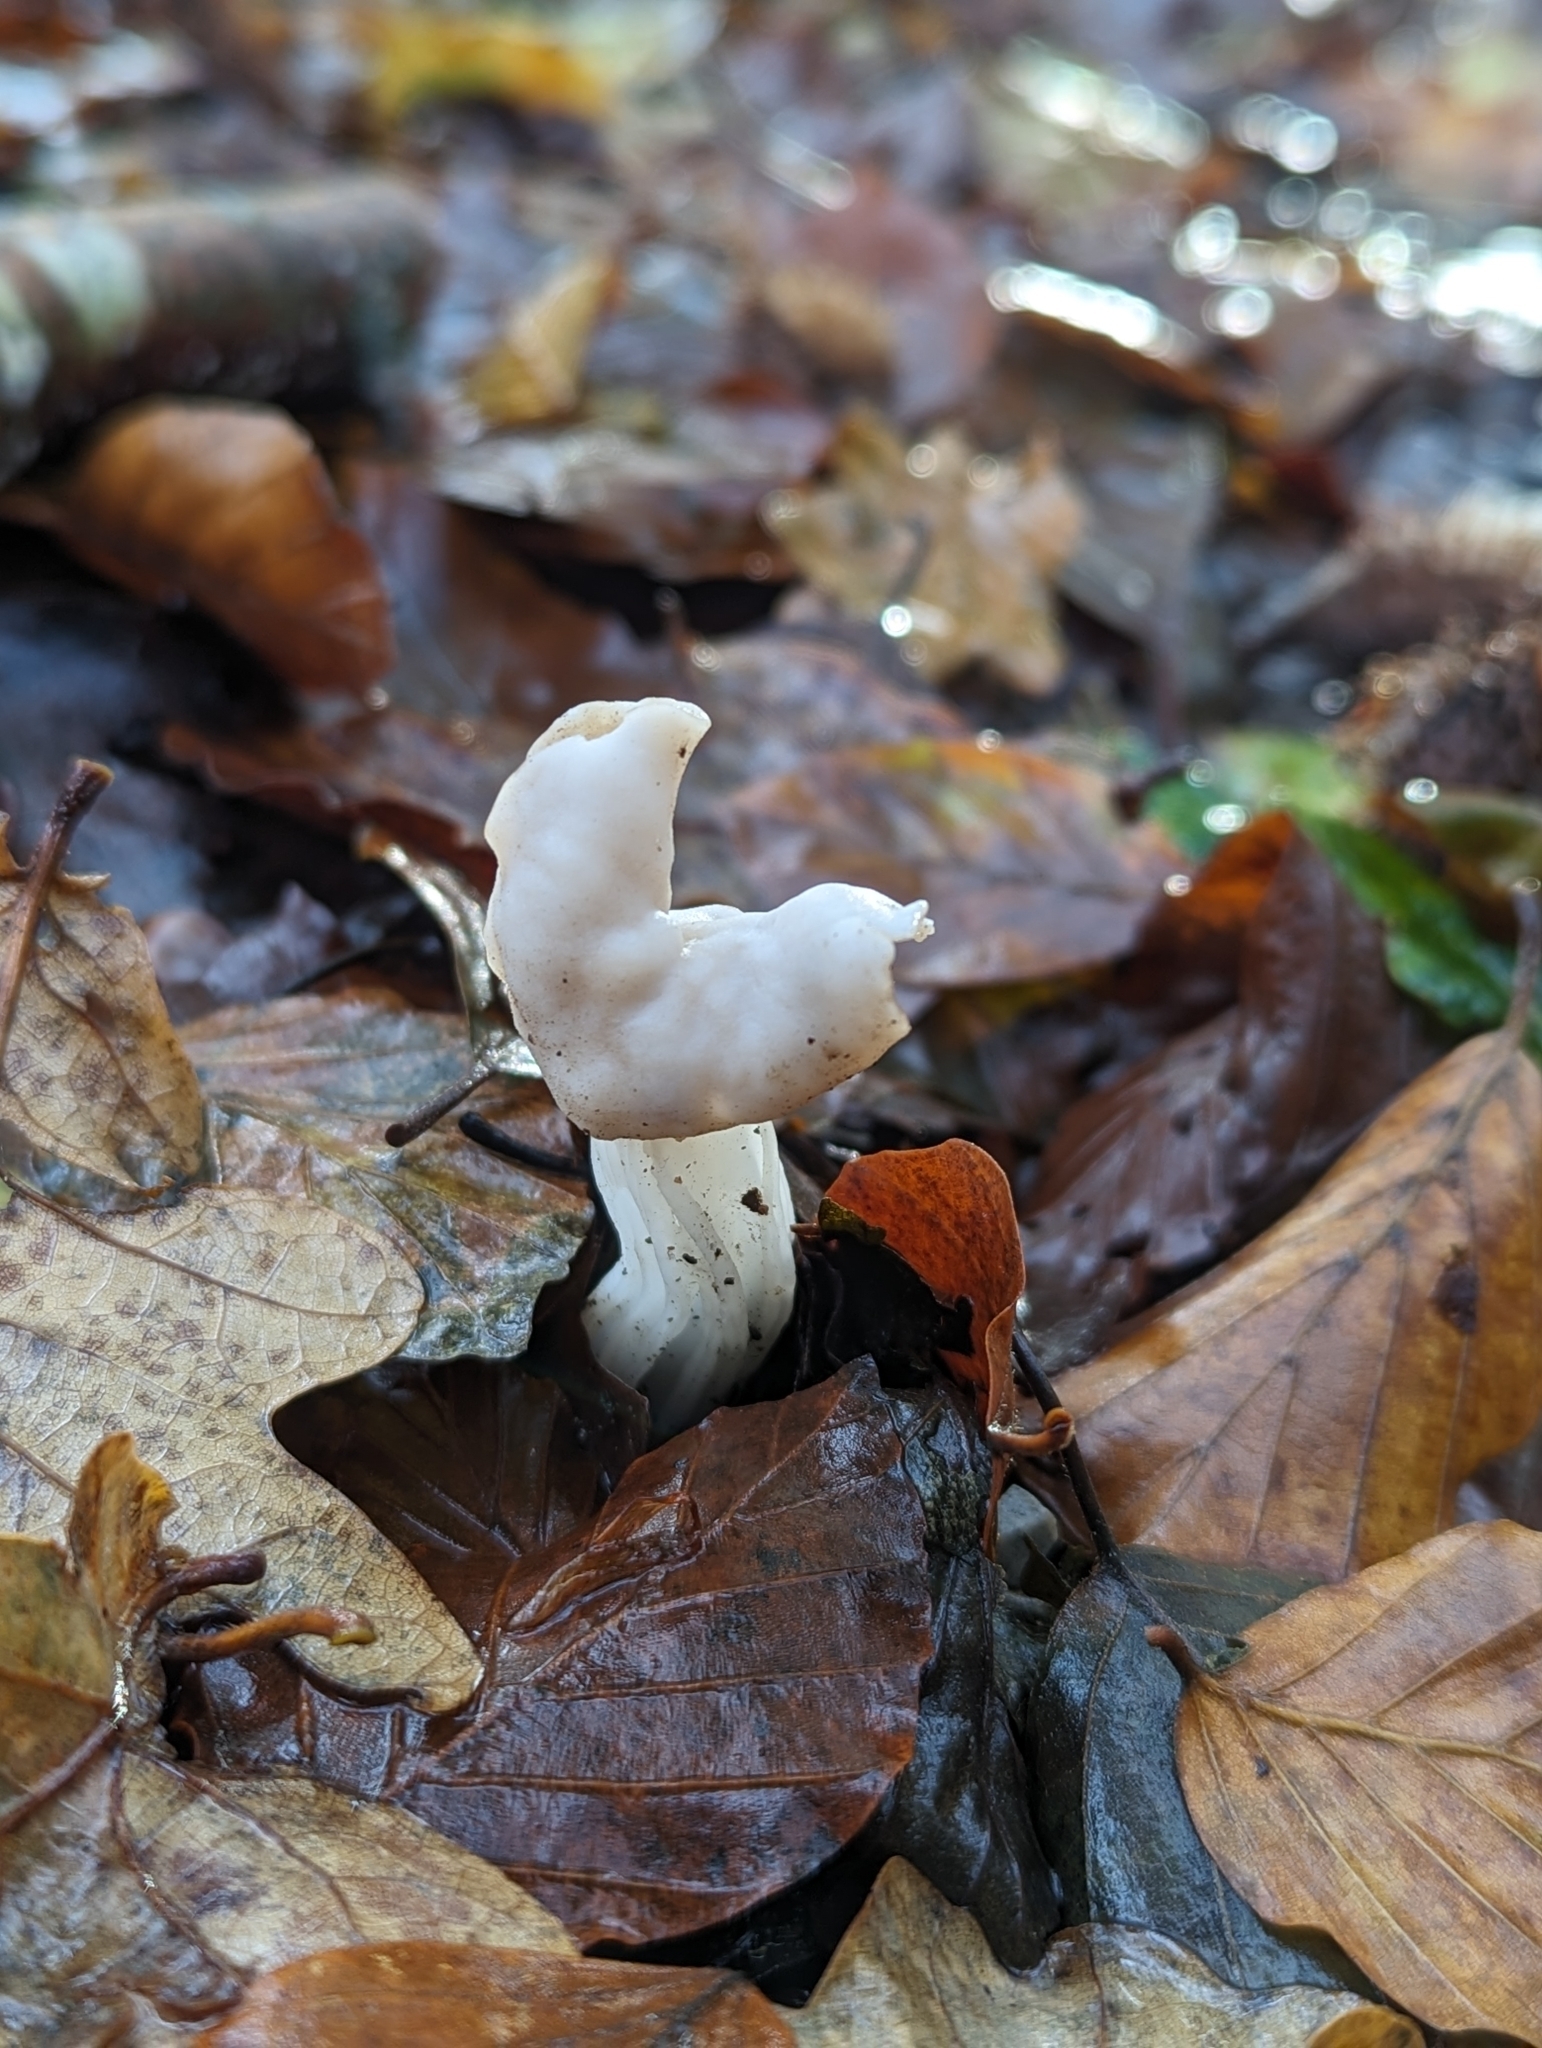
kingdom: Fungi
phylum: Ascomycota
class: Pezizomycetes
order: Pezizales
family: Helvellaceae
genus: Helvella
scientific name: Helvella crispa
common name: White saddle
